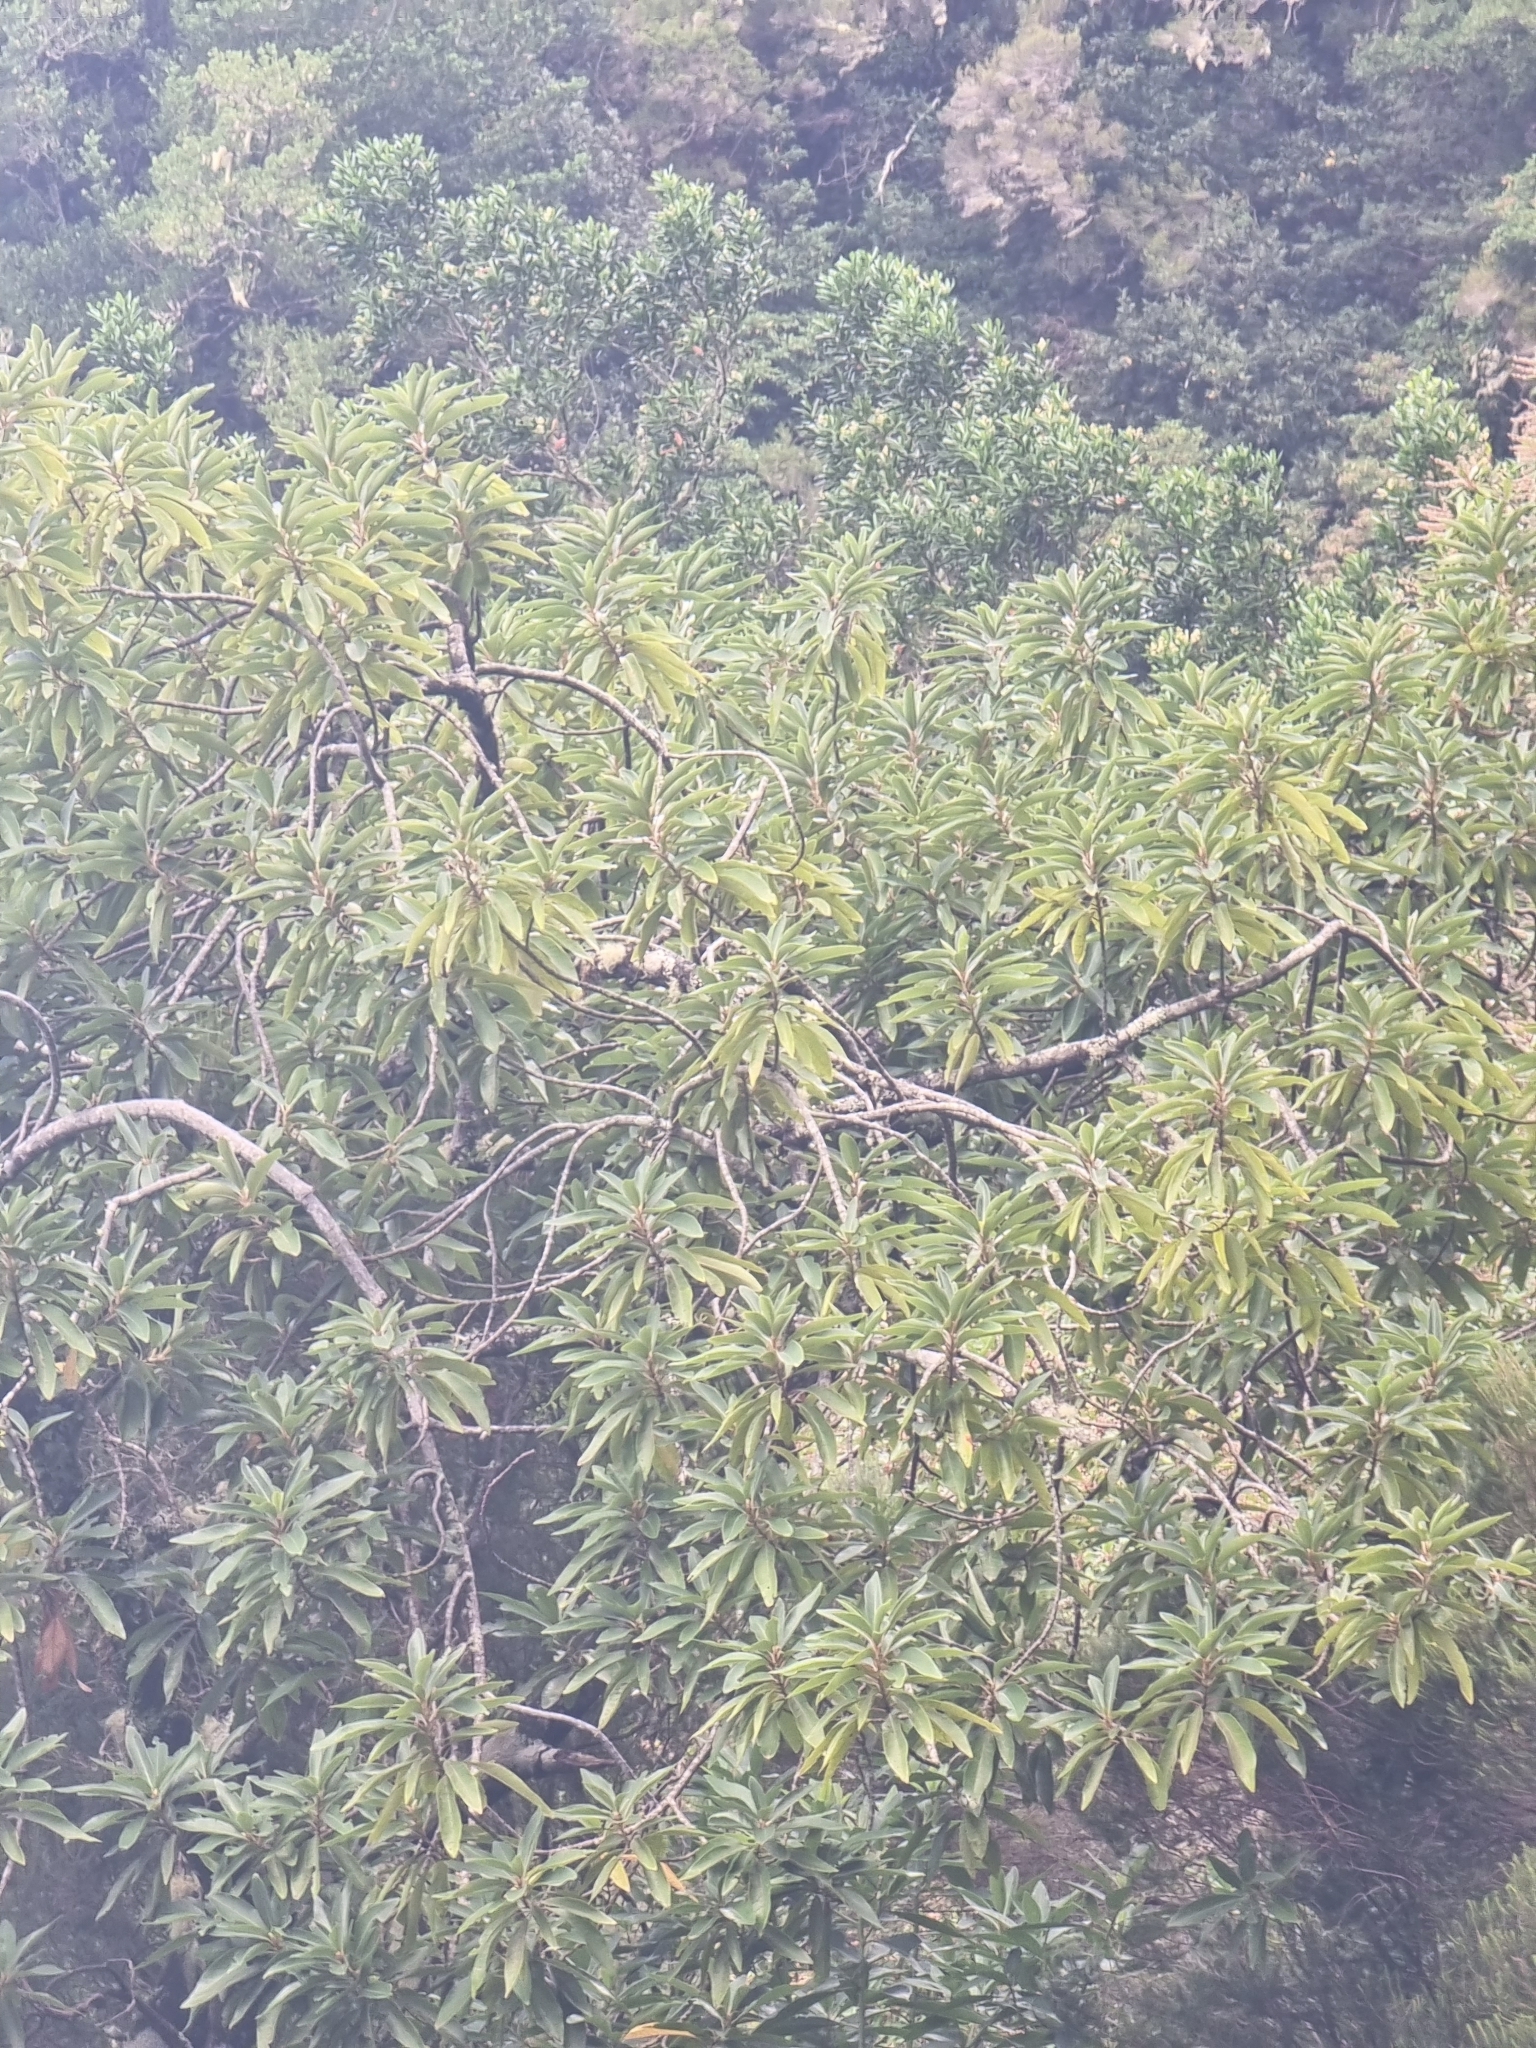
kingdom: Plantae
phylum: Tracheophyta
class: Magnoliopsida
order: Laurales
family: Lauraceae
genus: Persea
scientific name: Persea indica
